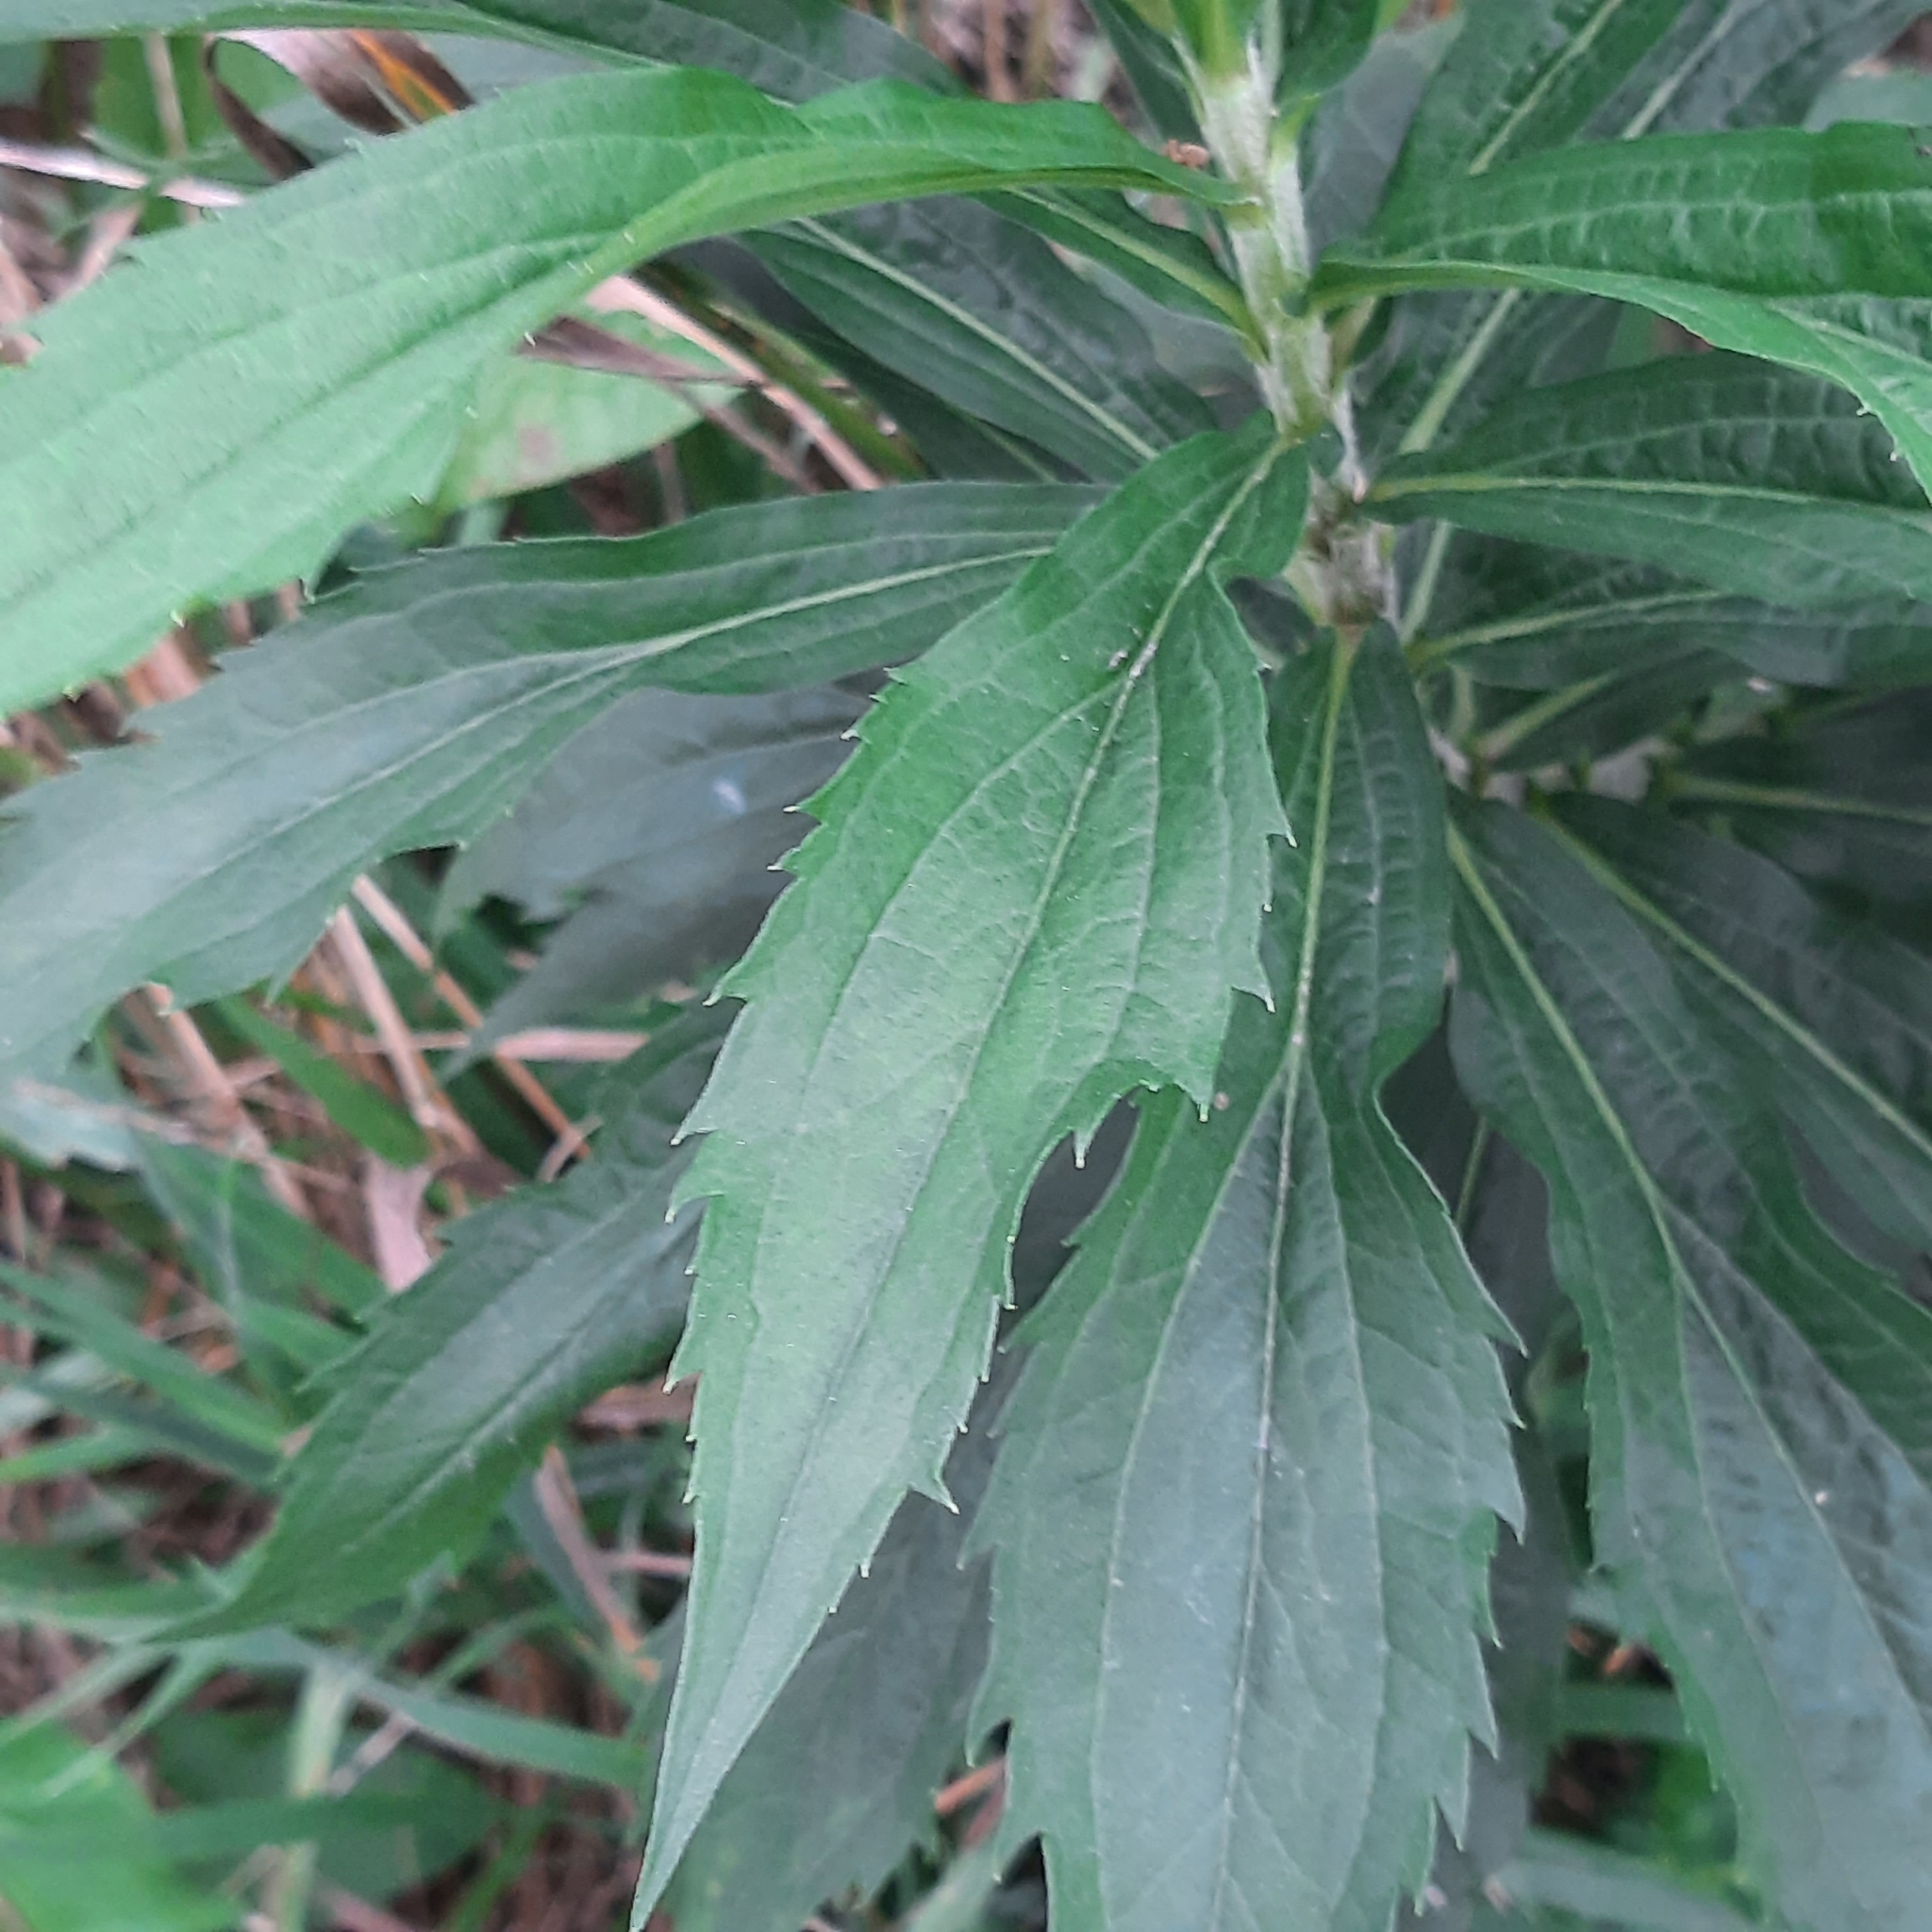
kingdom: Plantae
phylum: Tracheophyta
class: Magnoliopsida
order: Asterales
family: Asteraceae
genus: Solidago
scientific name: Solidago canadensis
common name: Canada goldenrod
